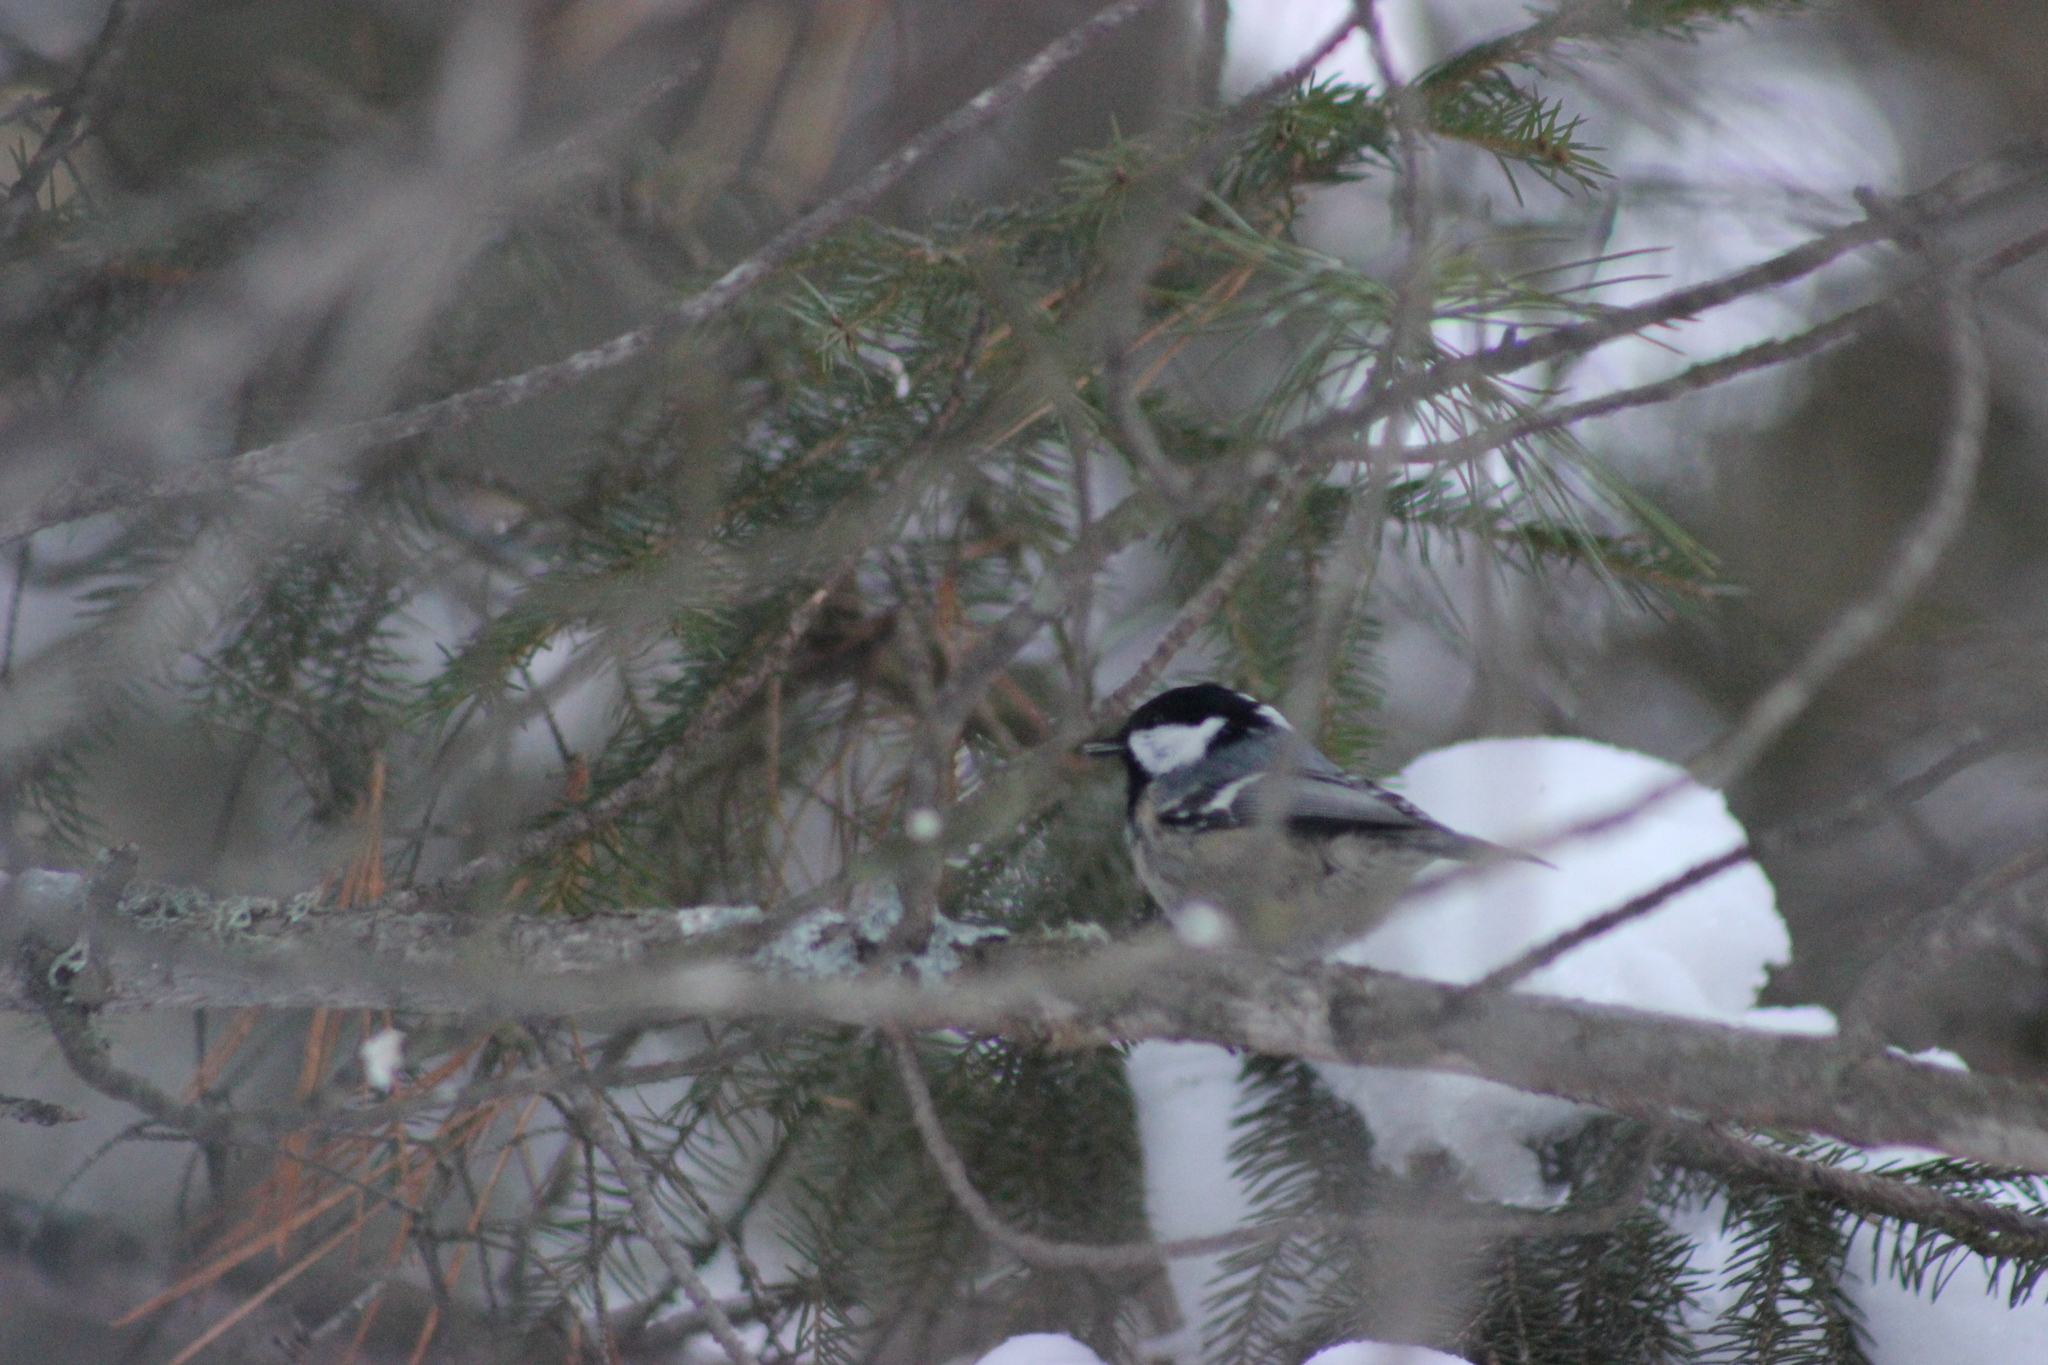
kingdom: Animalia
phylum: Chordata
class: Aves
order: Passeriformes
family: Paridae
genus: Periparus
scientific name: Periparus ater
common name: Coal tit
